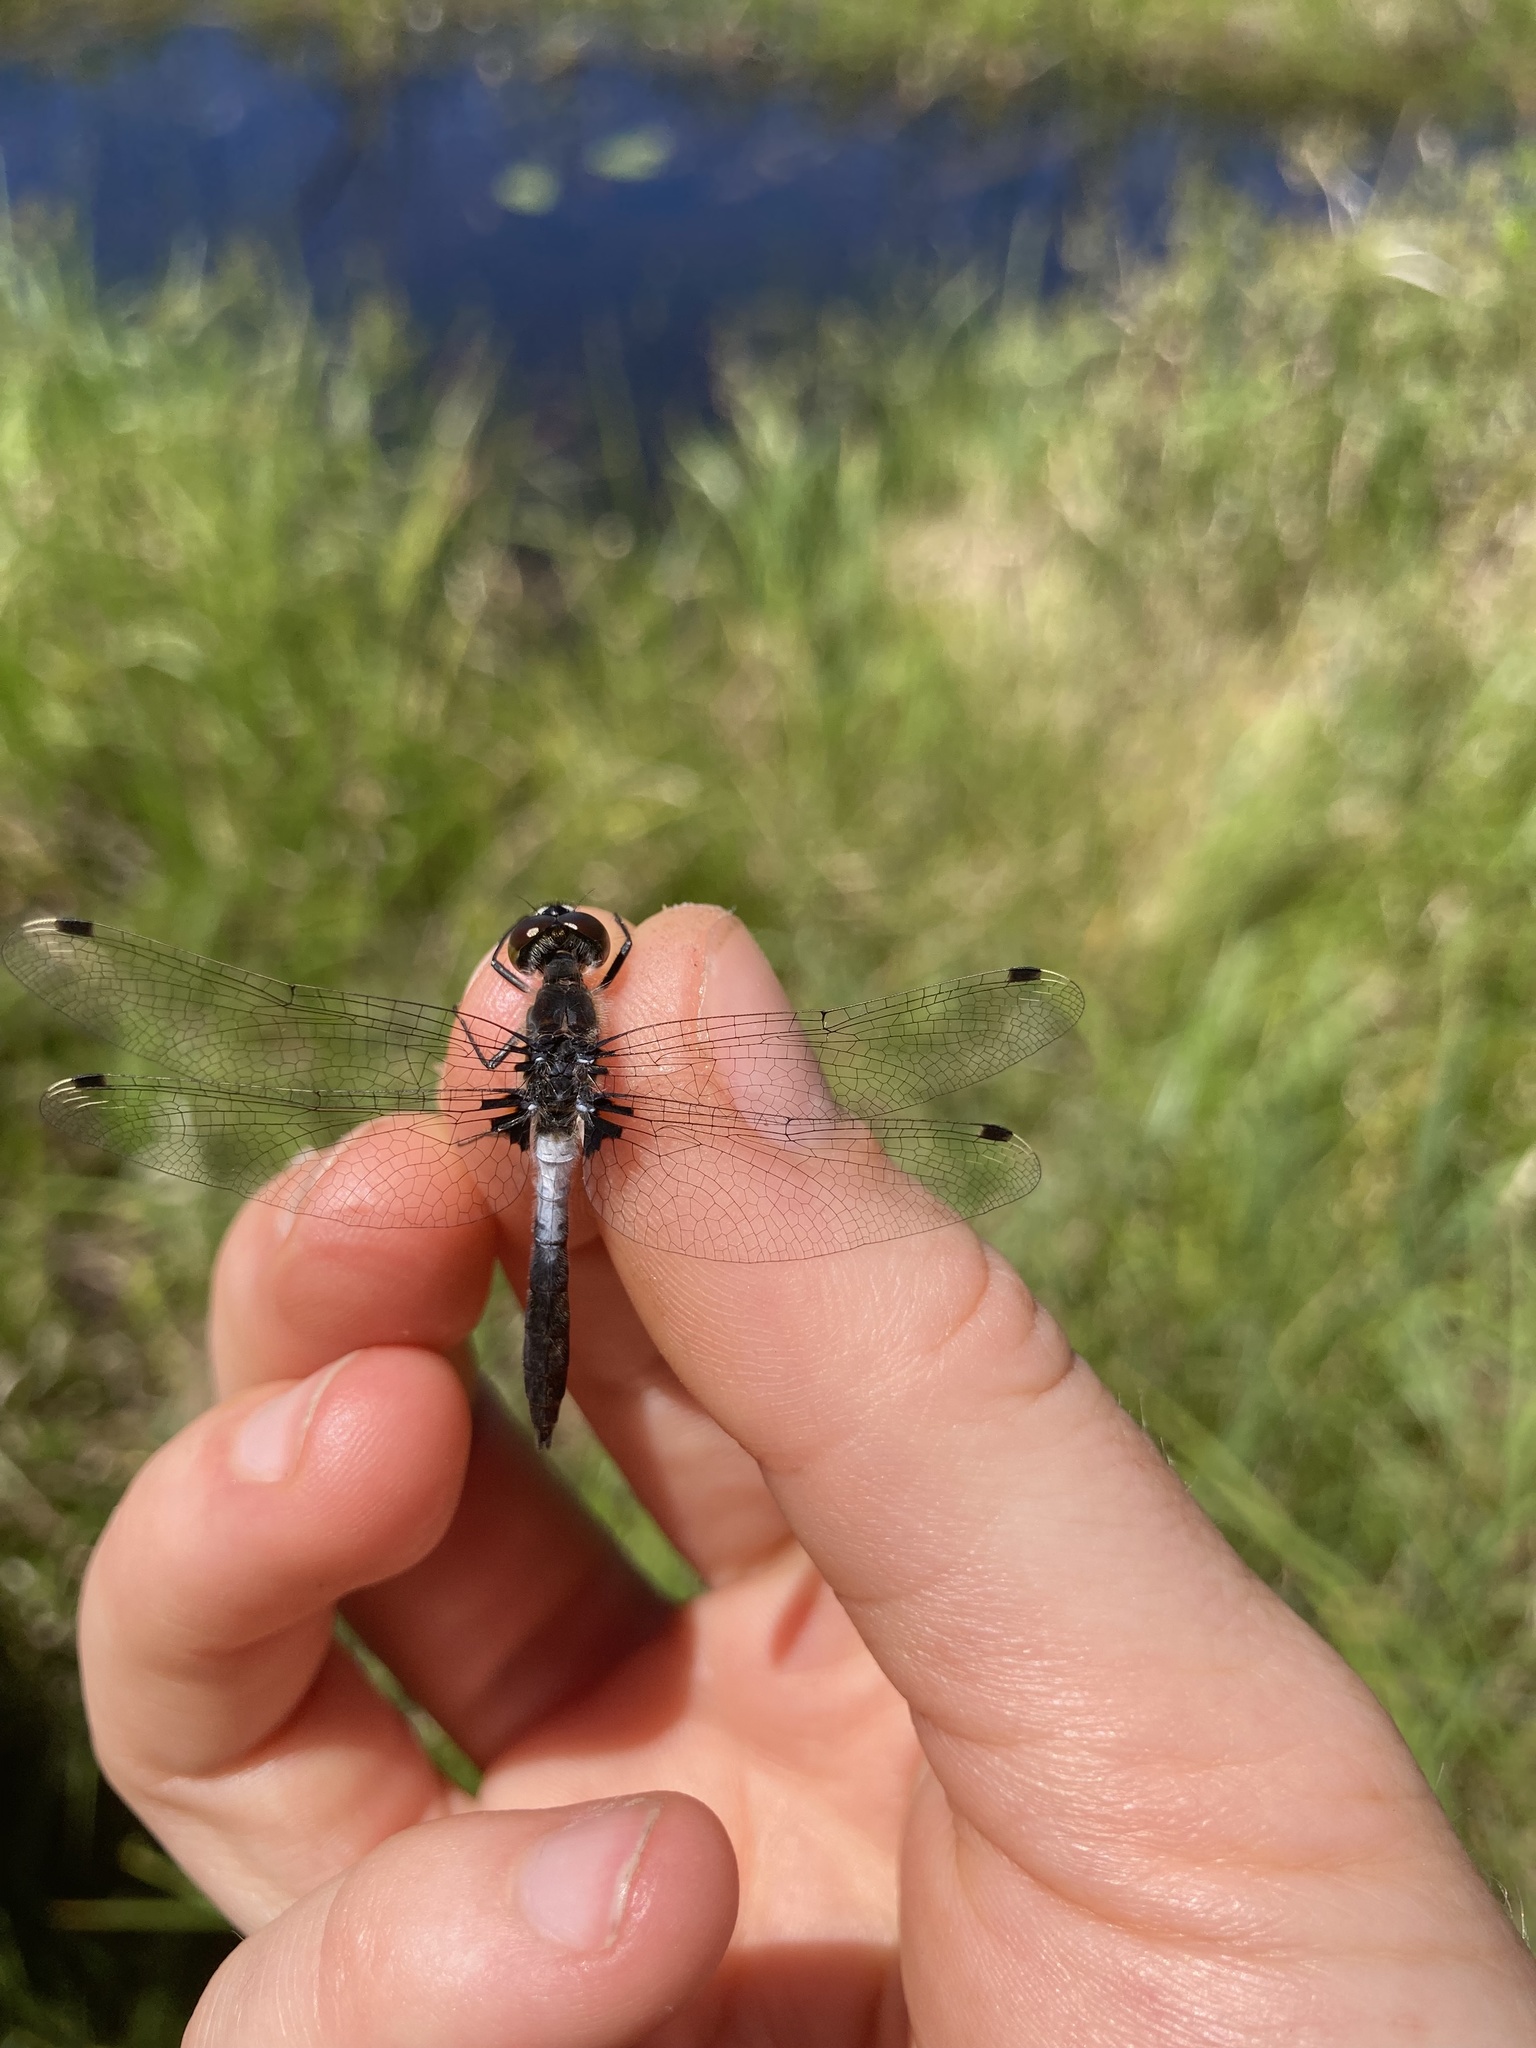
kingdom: Animalia
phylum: Arthropoda
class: Insecta
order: Odonata
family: Libellulidae
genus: Leucorrhinia
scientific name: Leucorrhinia frigida
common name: Frosted whiteface
